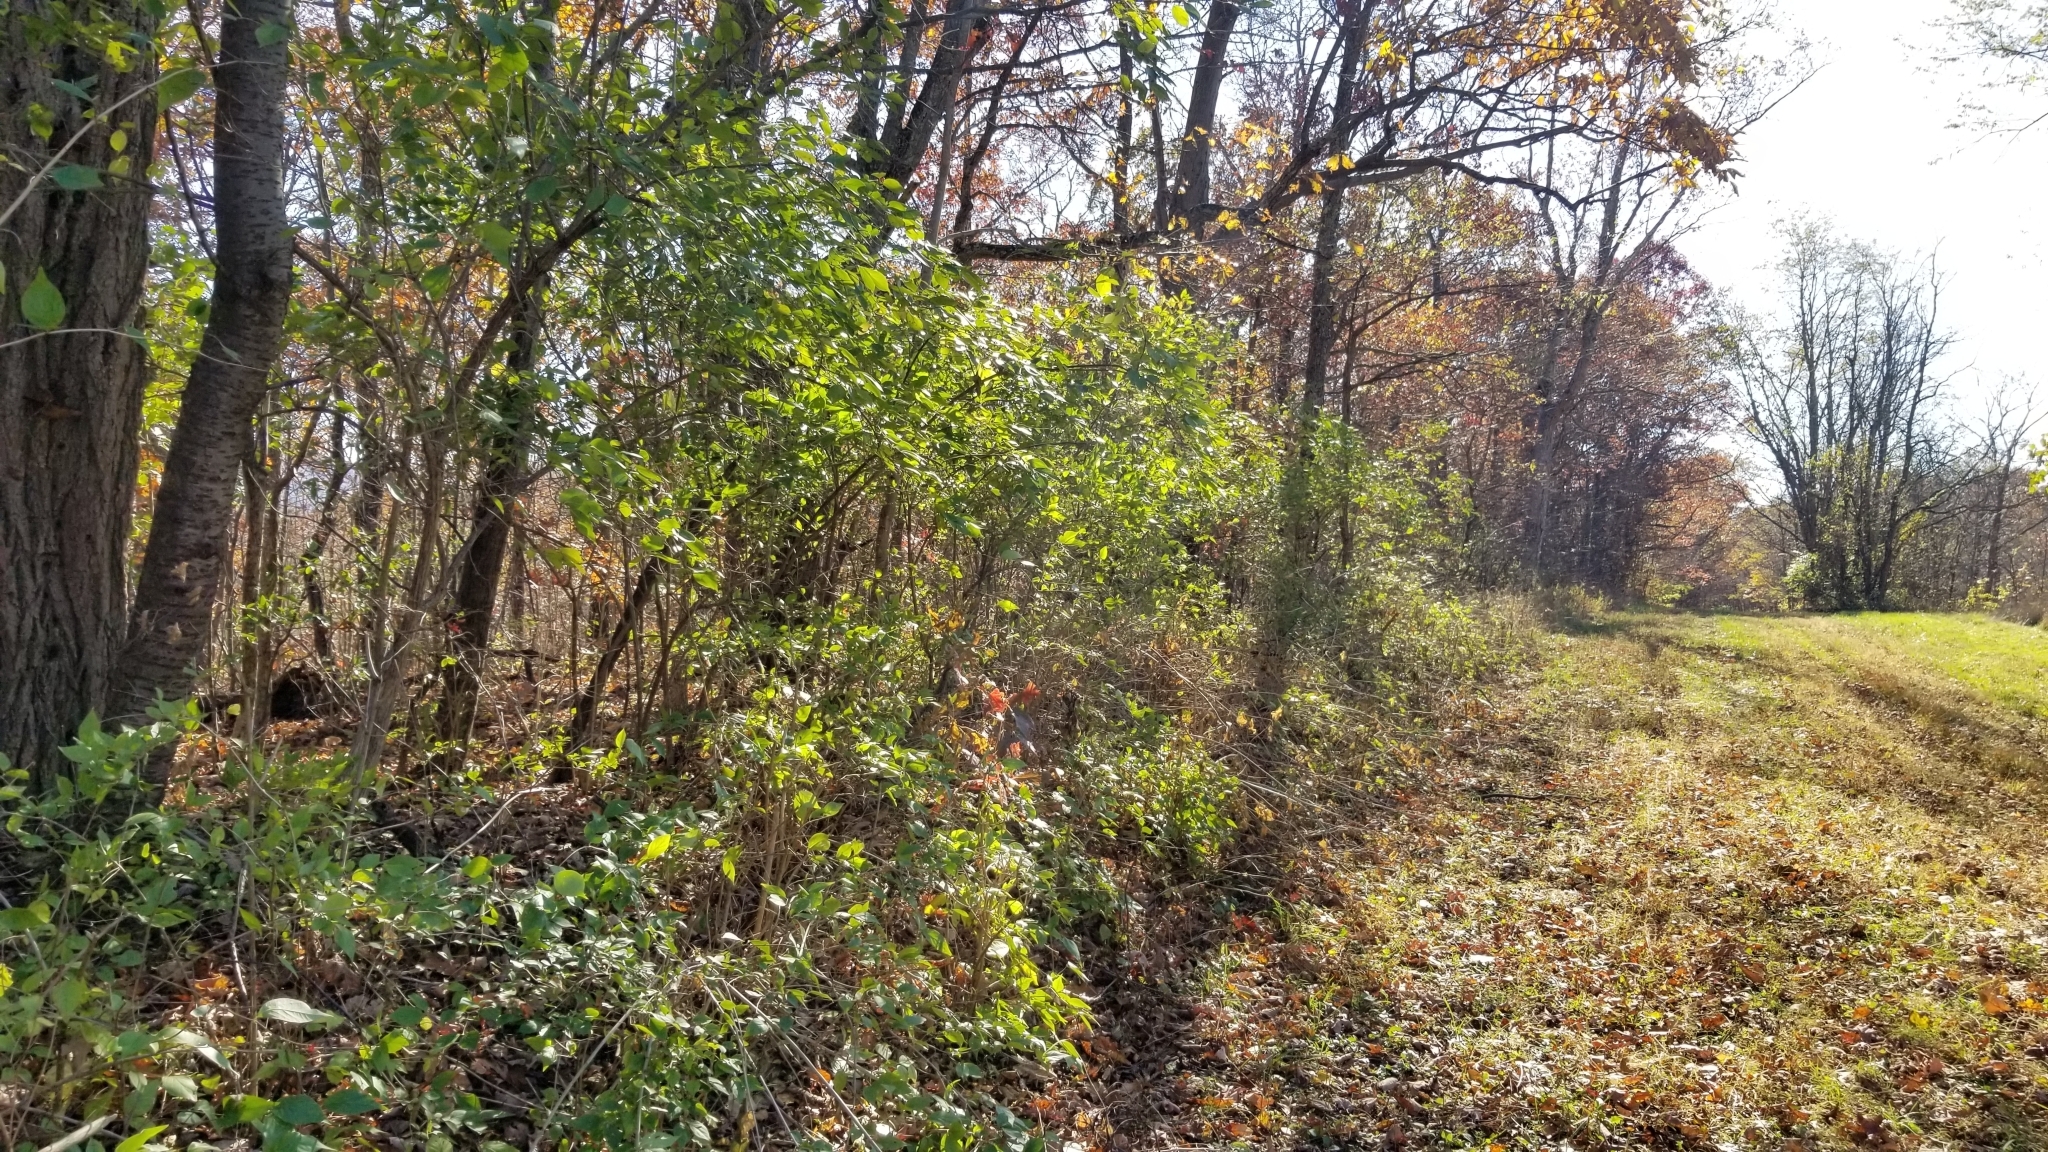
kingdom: Plantae
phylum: Tracheophyta
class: Magnoliopsida
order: Dipsacales
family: Caprifoliaceae
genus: Lonicera
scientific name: Lonicera maackii
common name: Amur honeysuckle
